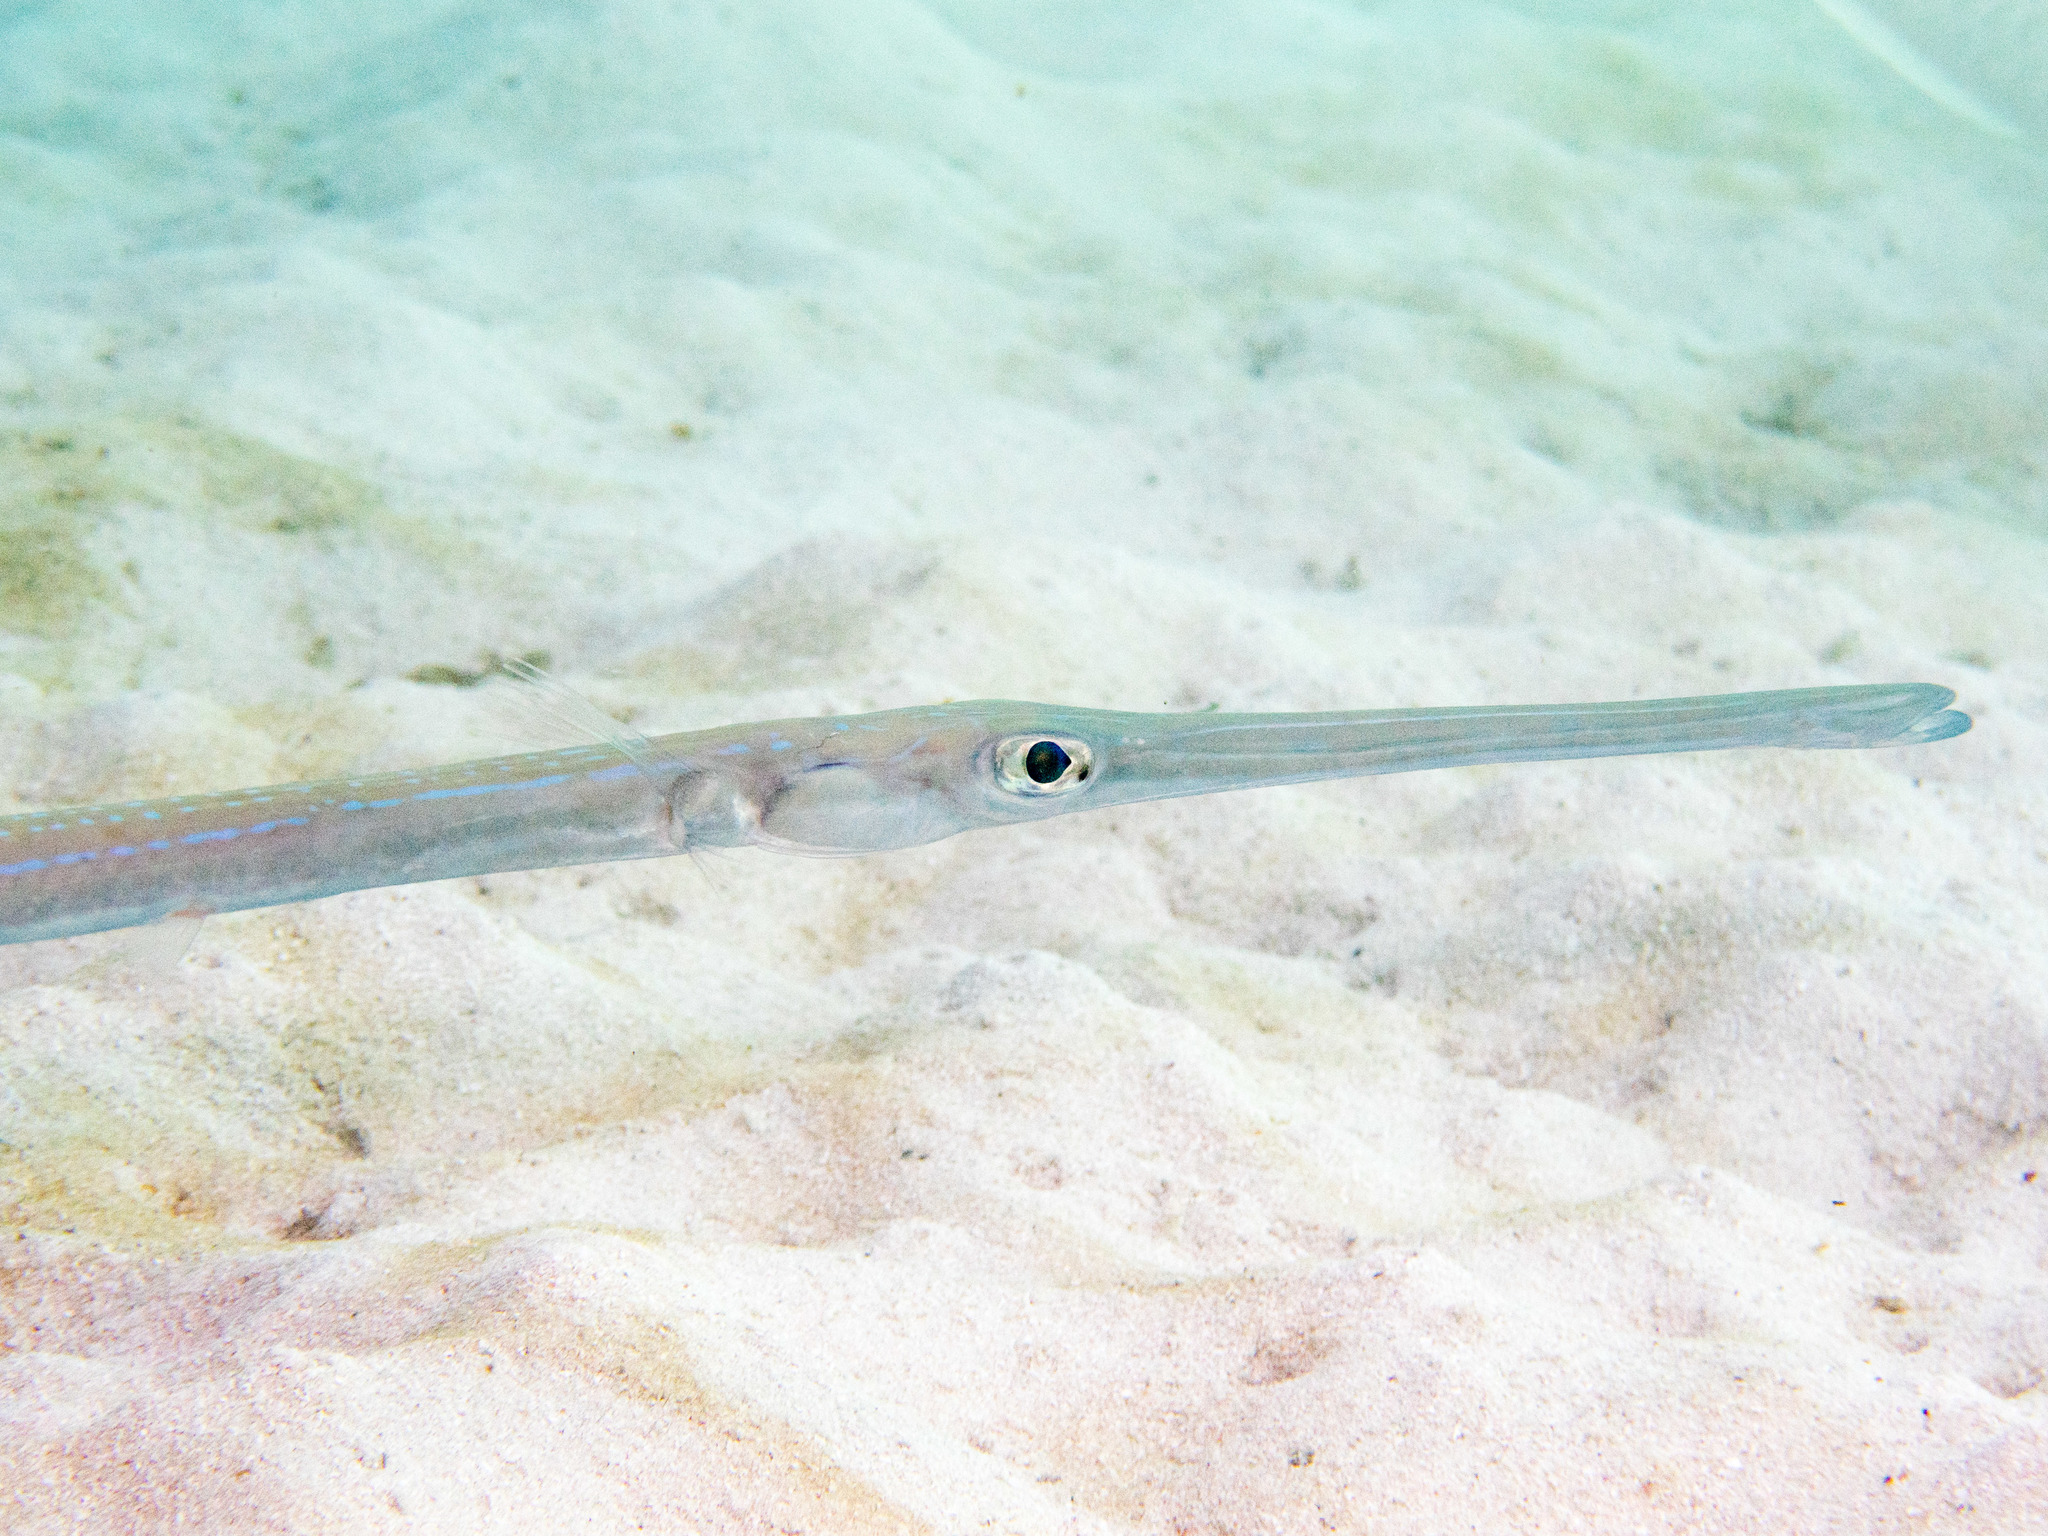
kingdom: Animalia
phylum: Chordata
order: Syngnathiformes
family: Fistulariidae
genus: Fistularia
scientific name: Fistularia commersonii
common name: Bluespotted cornetfish
